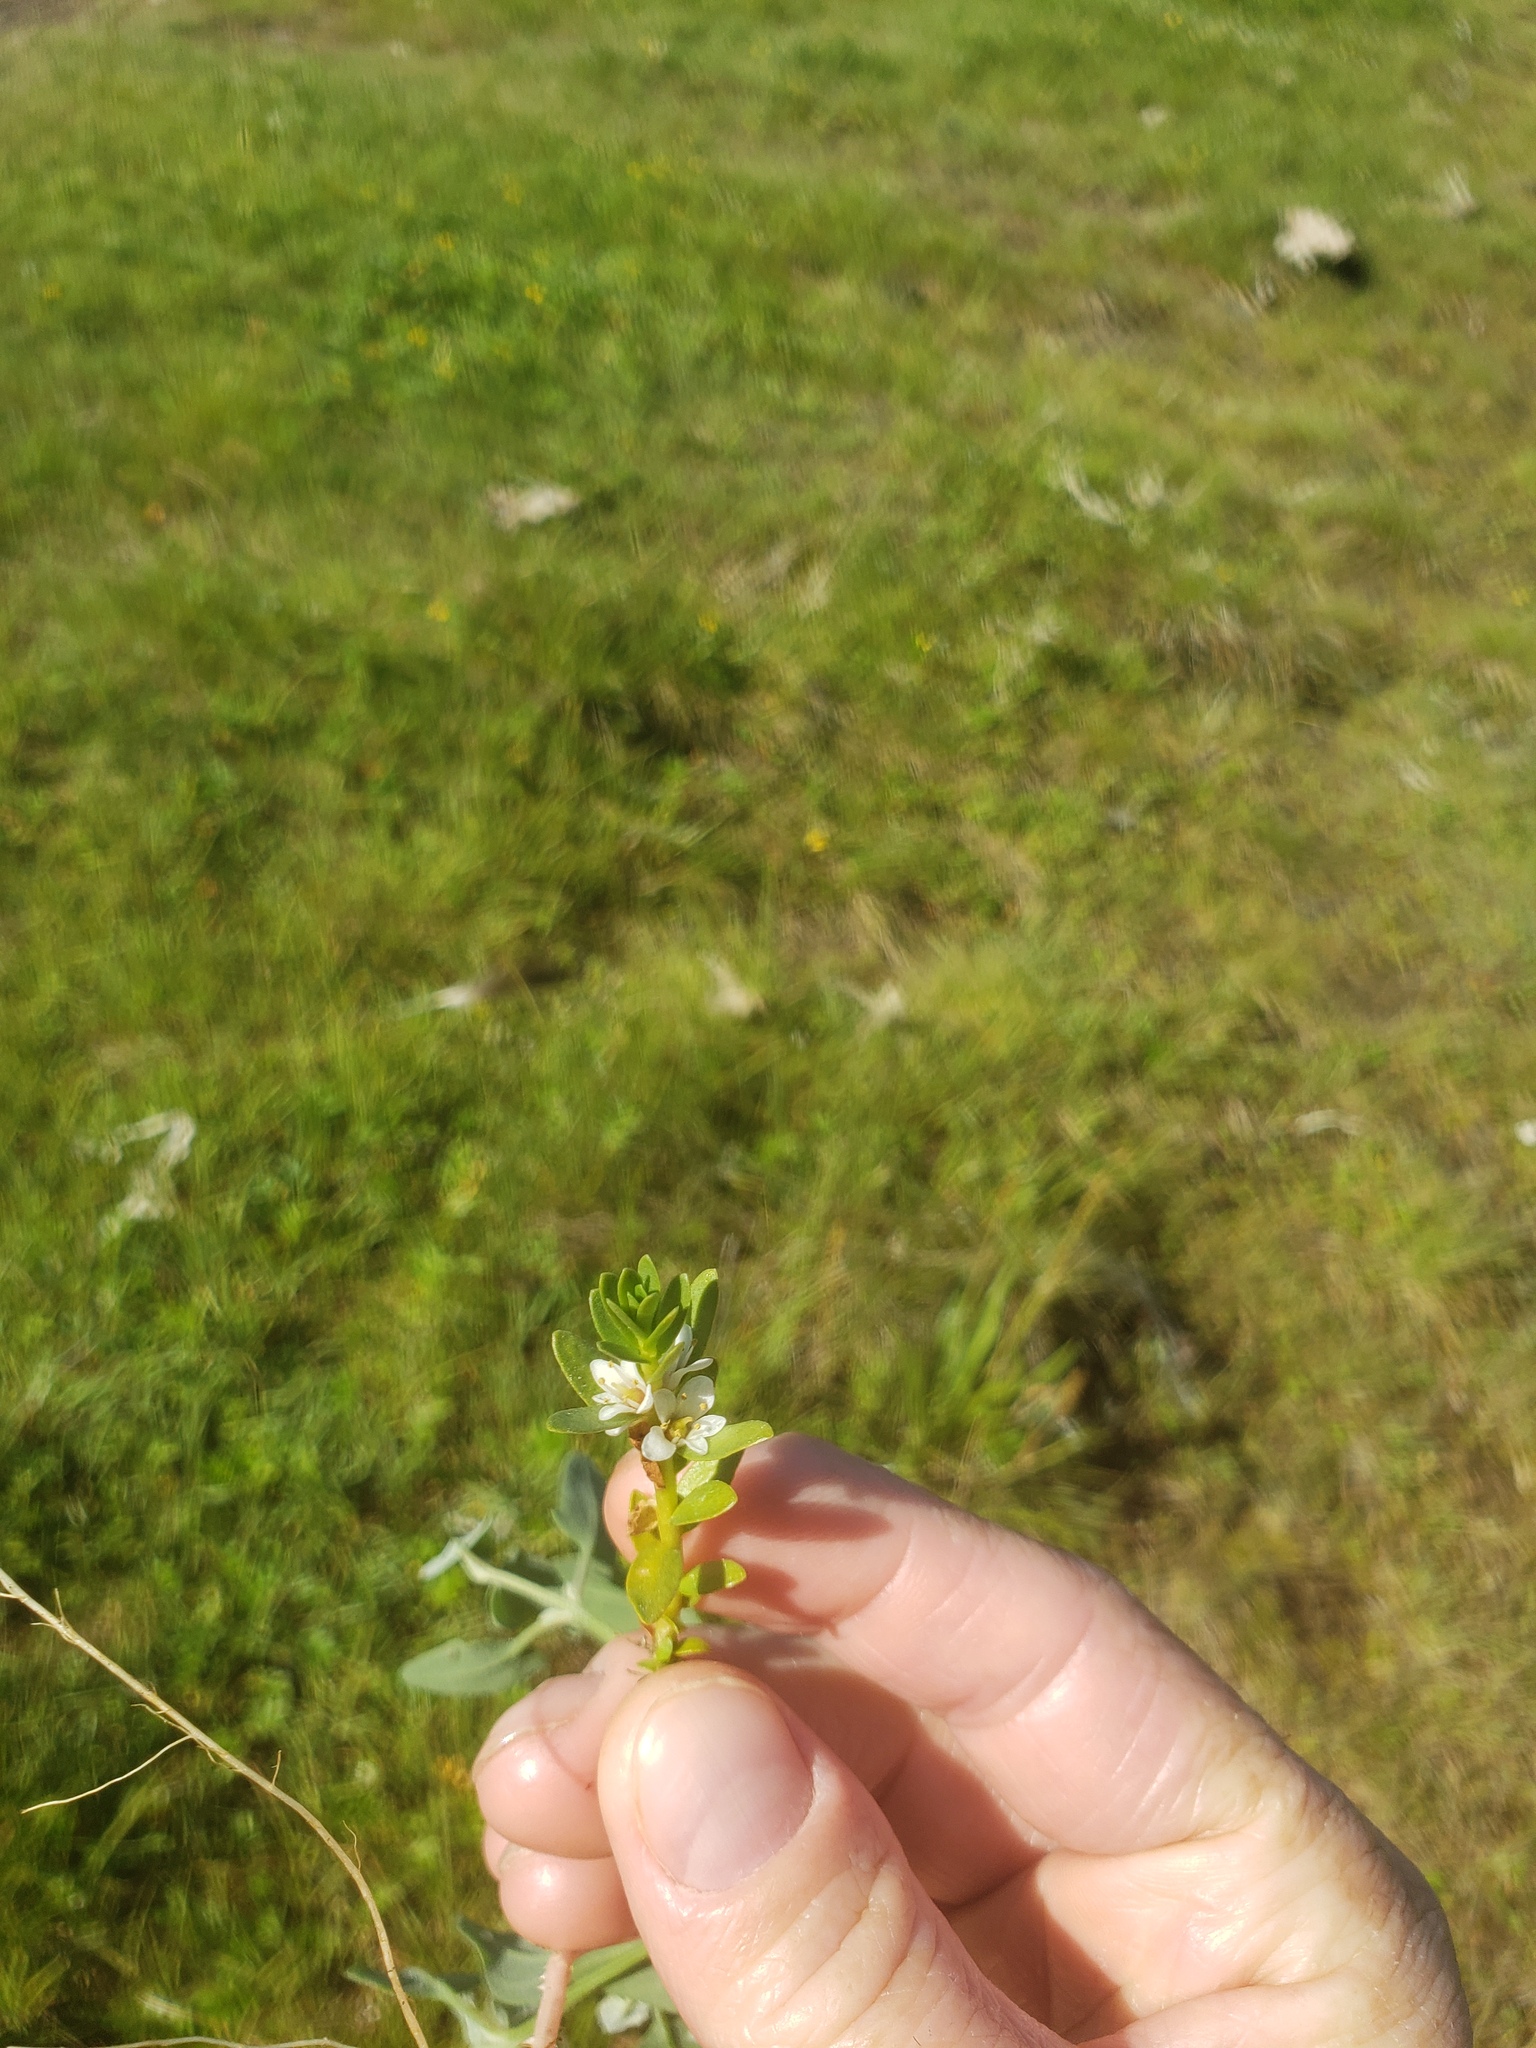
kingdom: Plantae
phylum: Tracheophyta
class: Magnoliopsida
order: Ericales
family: Primulaceae
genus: Lysimachia
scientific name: Lysimachia maritima
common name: Sea milkwort
